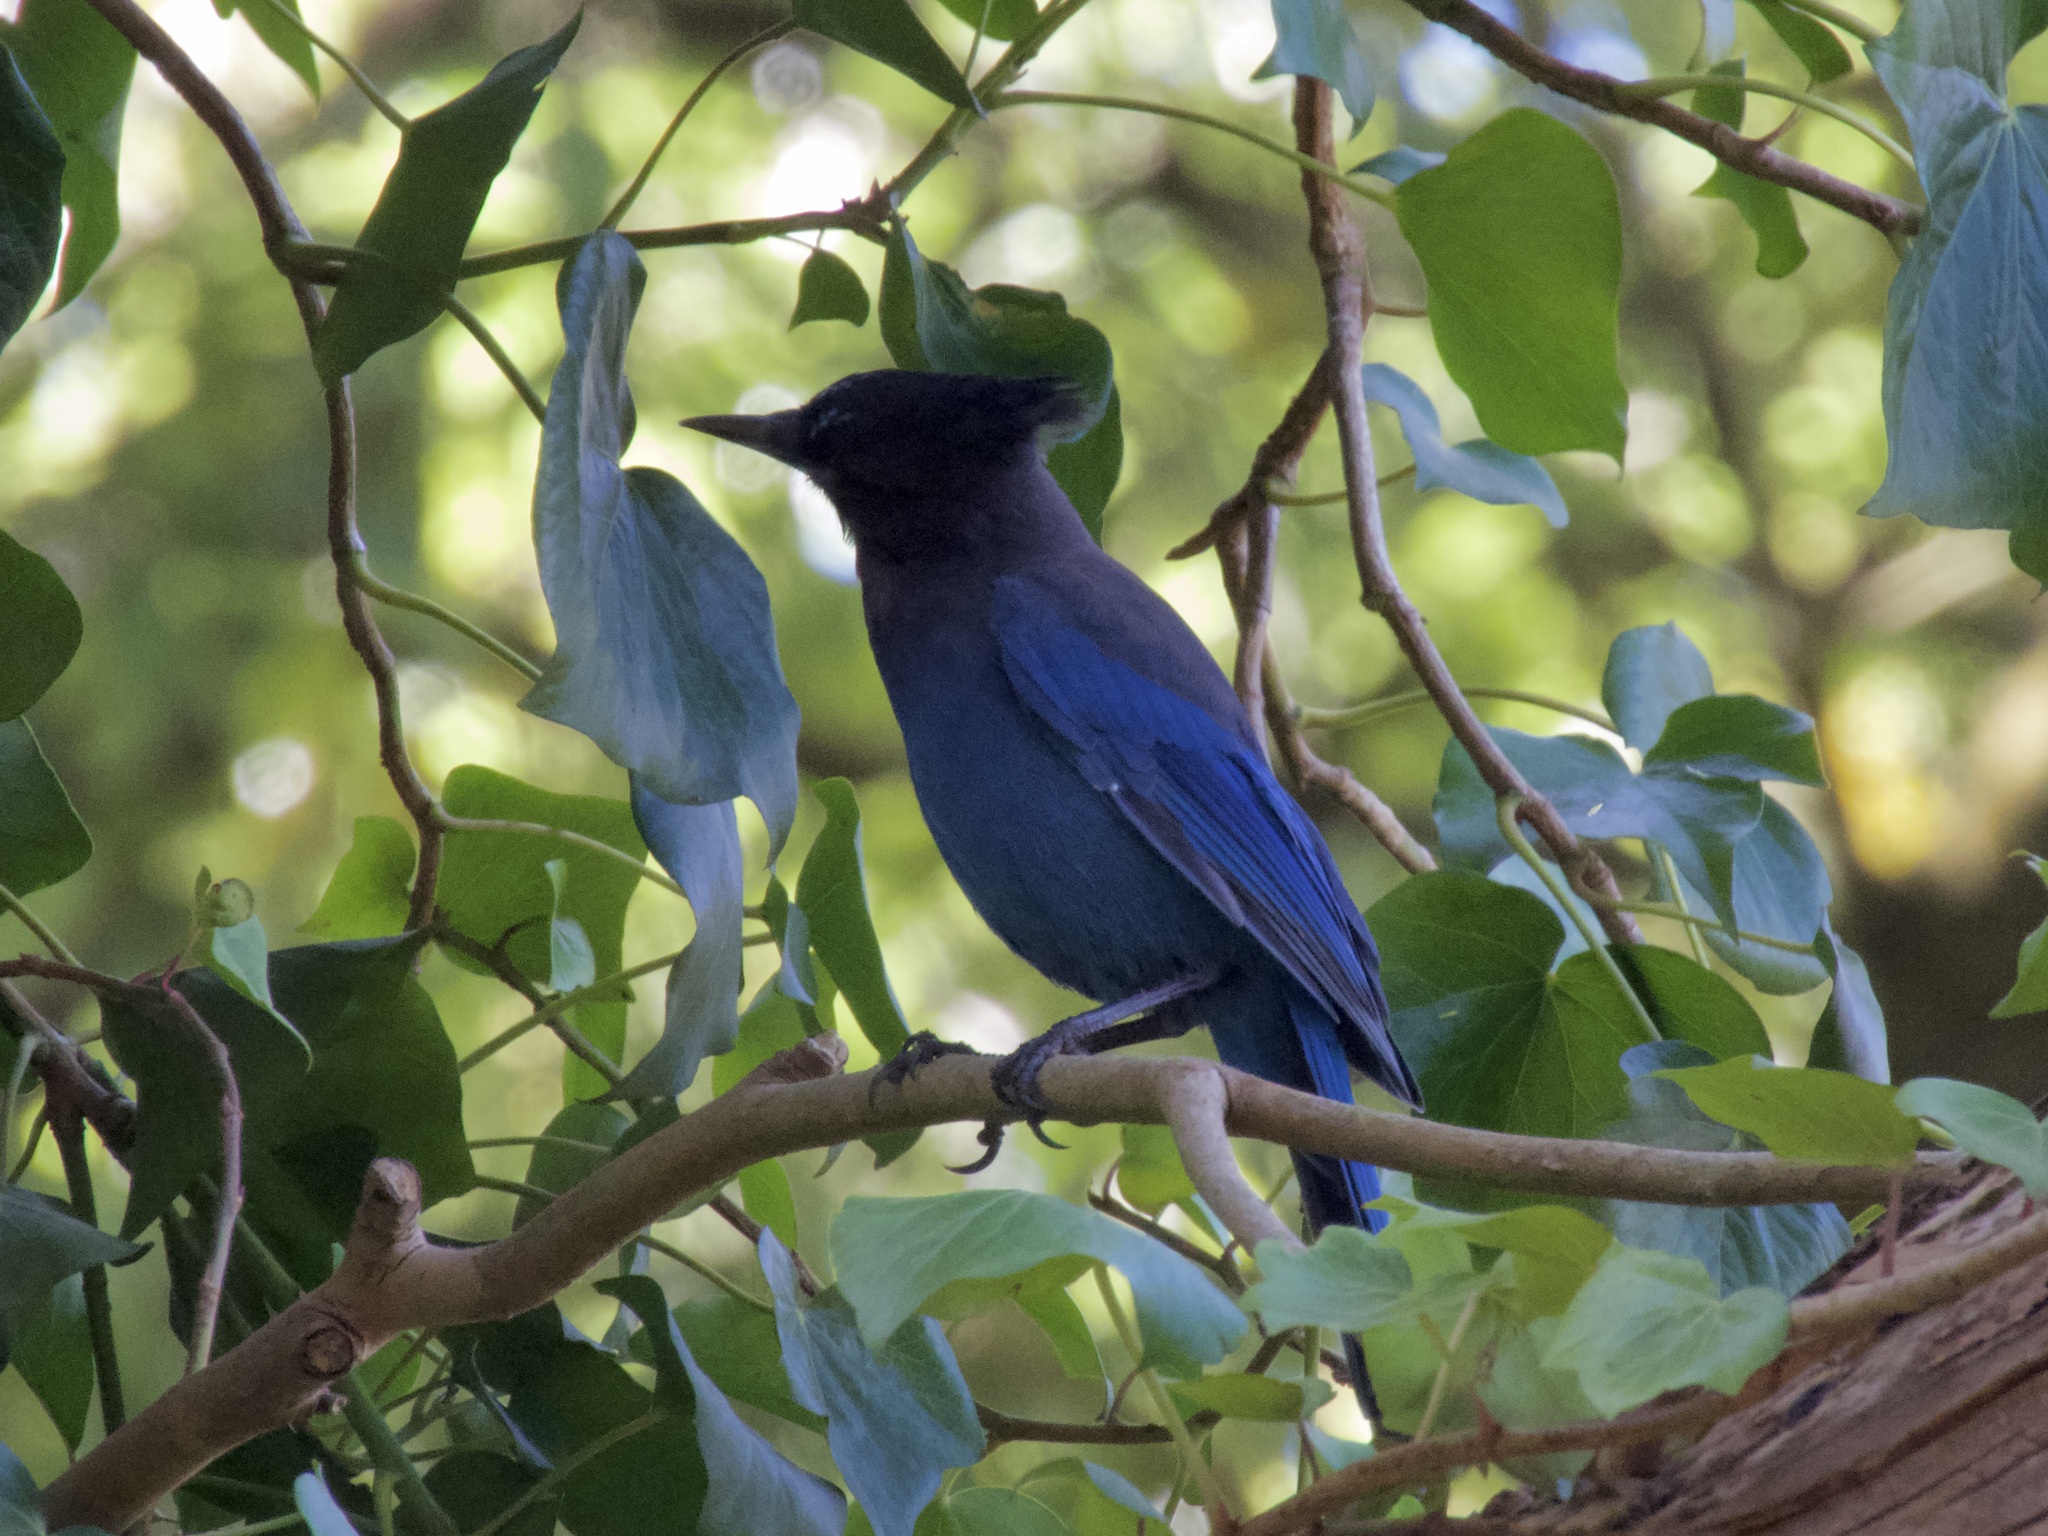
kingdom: Animalia
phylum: Chordata
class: Aves
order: Passeriformes
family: Corvidae
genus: Cyanocitta
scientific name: Cyanocitta stelleri
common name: Steller's jay
